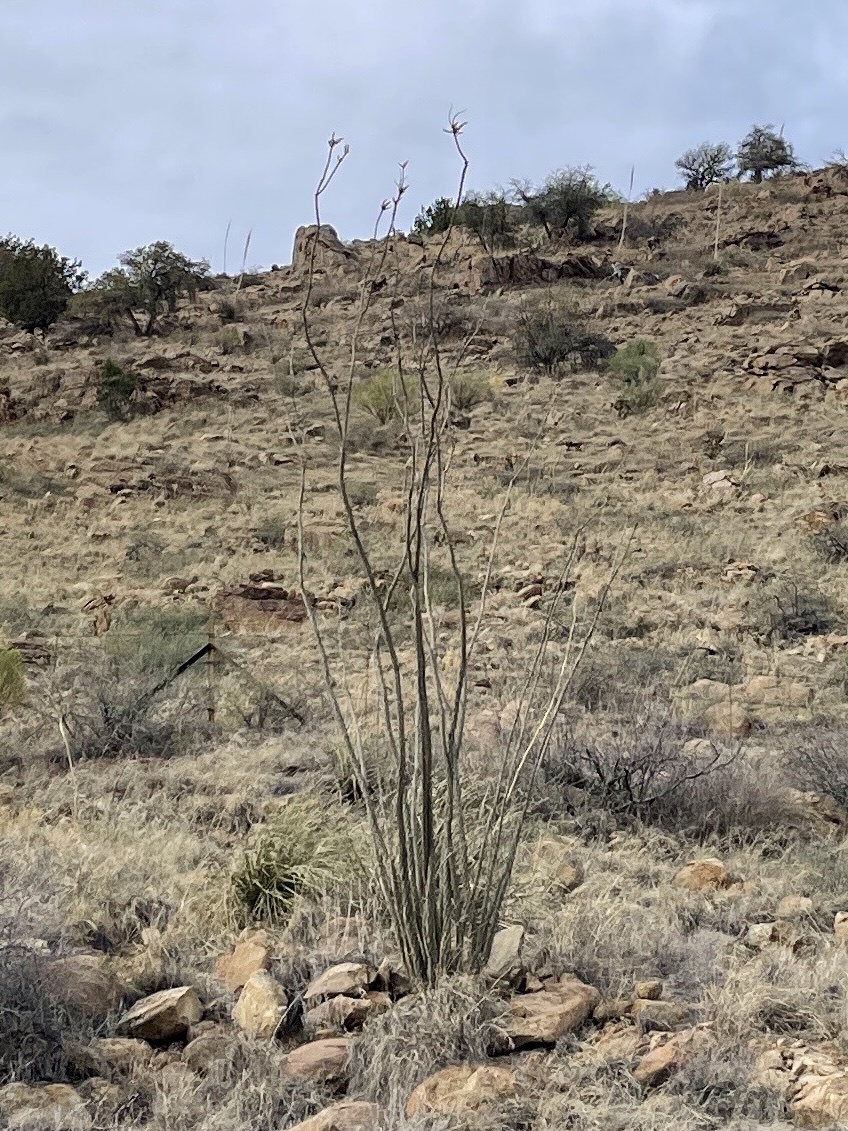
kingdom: Plantae
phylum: Tracheophyta
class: Magnoliopsida
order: Ericales
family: Fouquieriaceae
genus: Fouquieria
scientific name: Fouquieria splendens
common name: Vine-cactus
